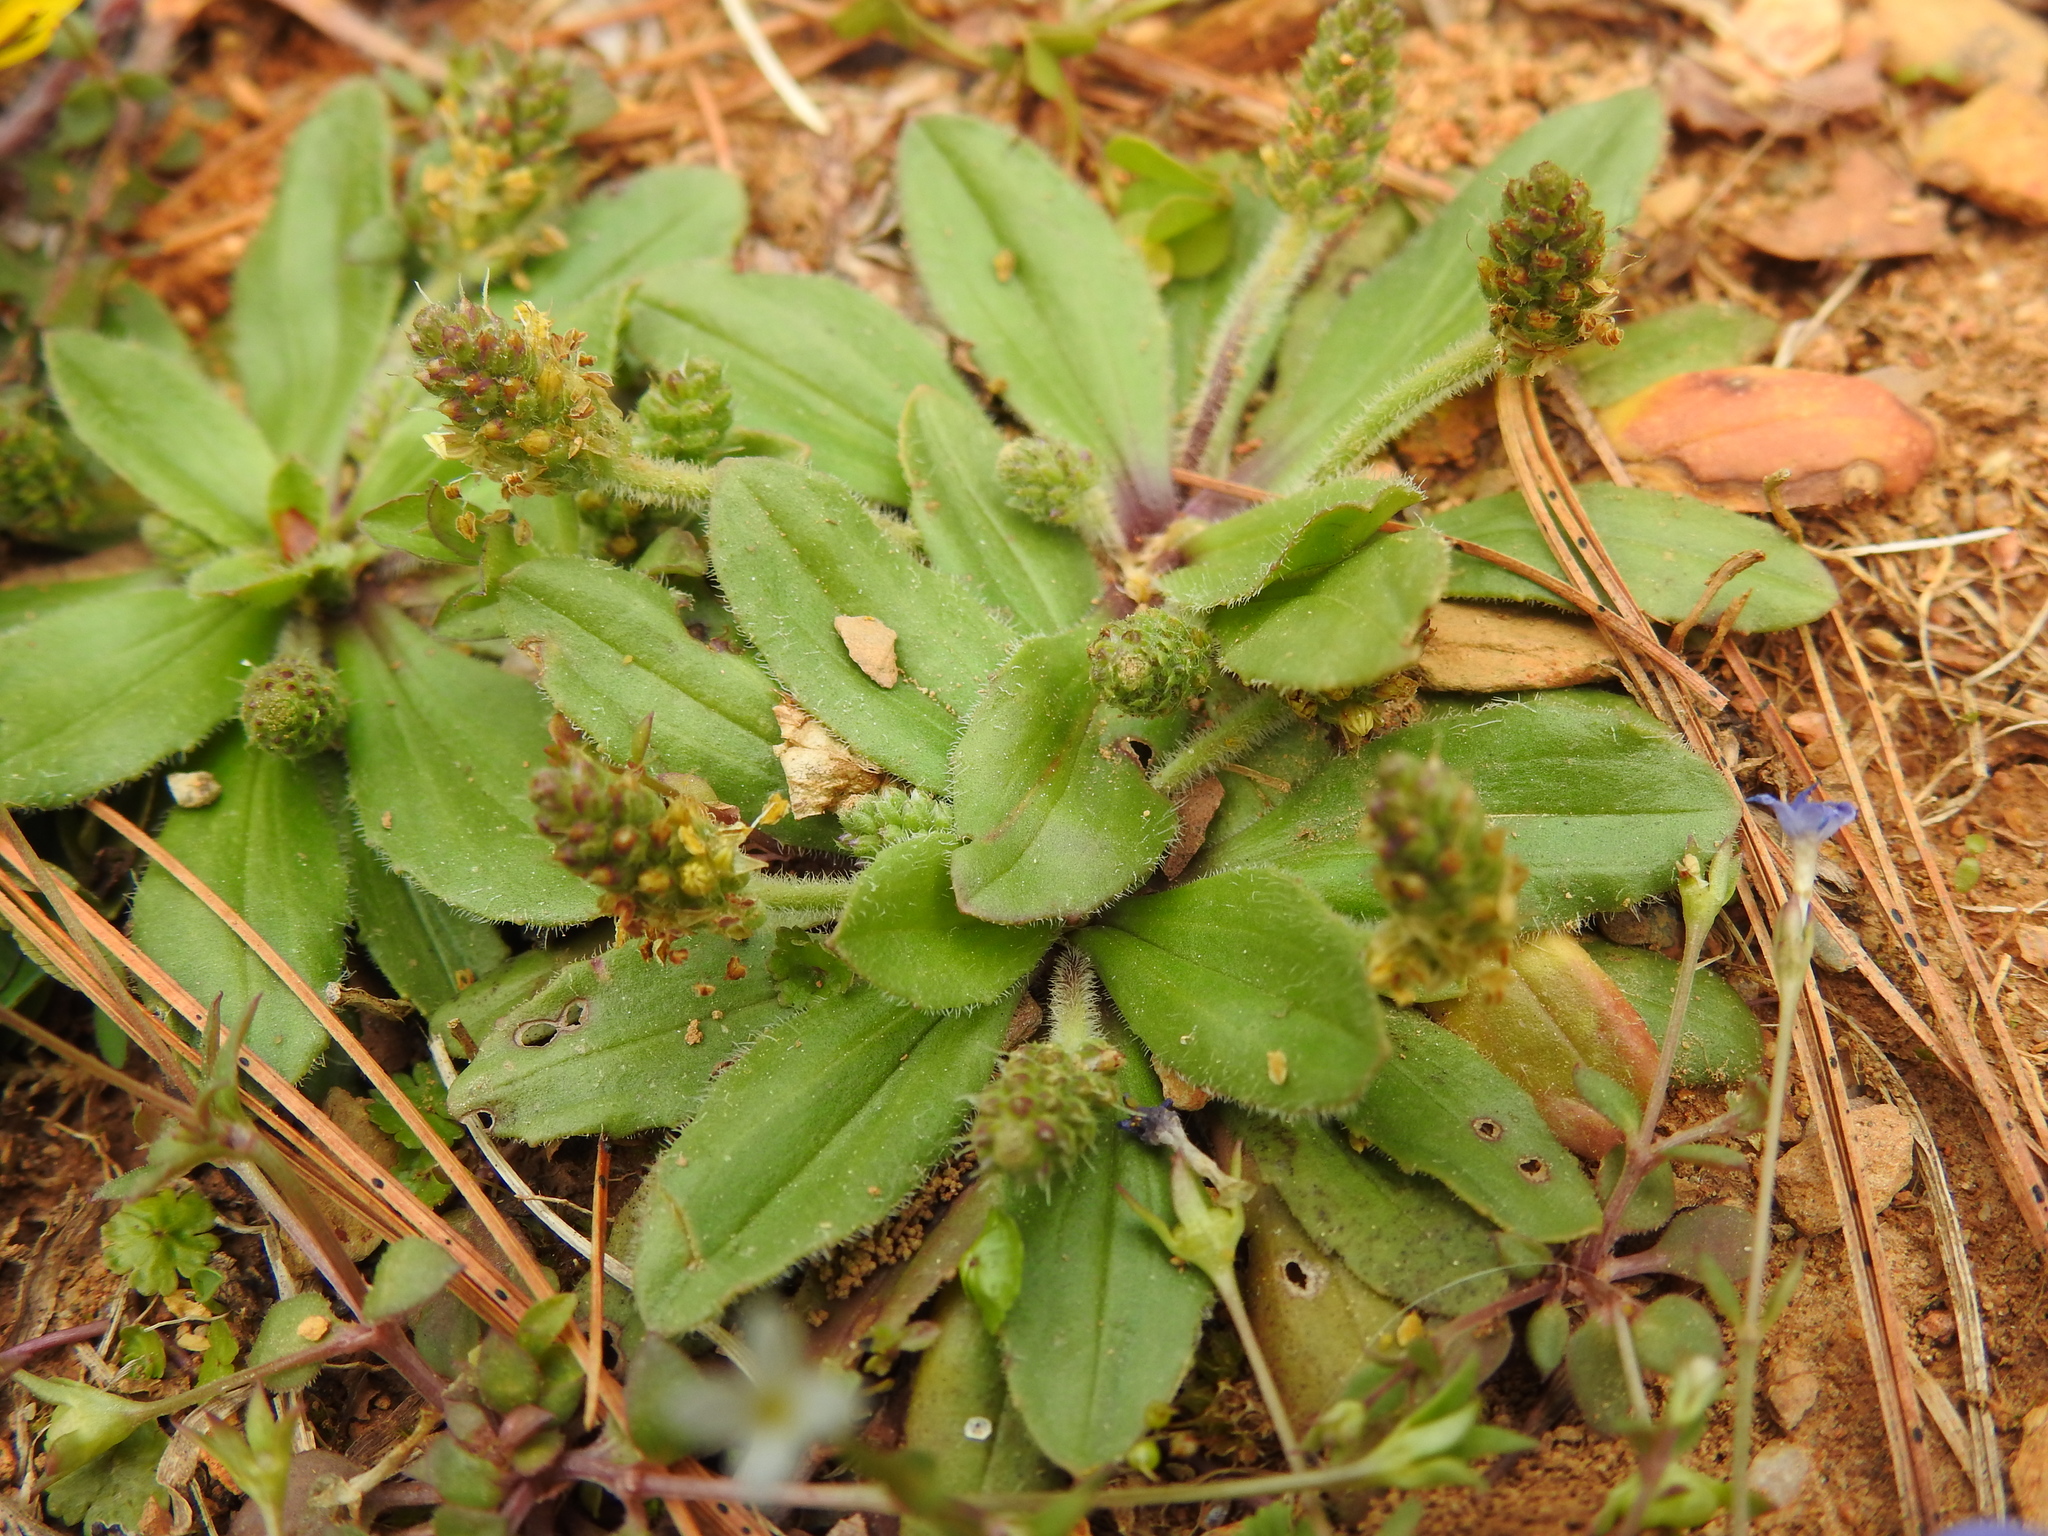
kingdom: Plantae
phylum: Tracheophyta
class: Magnoliopsida
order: Lamiales
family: Plantaginaceae
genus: Plantago
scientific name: Plantago virginica
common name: Hoary plantain
